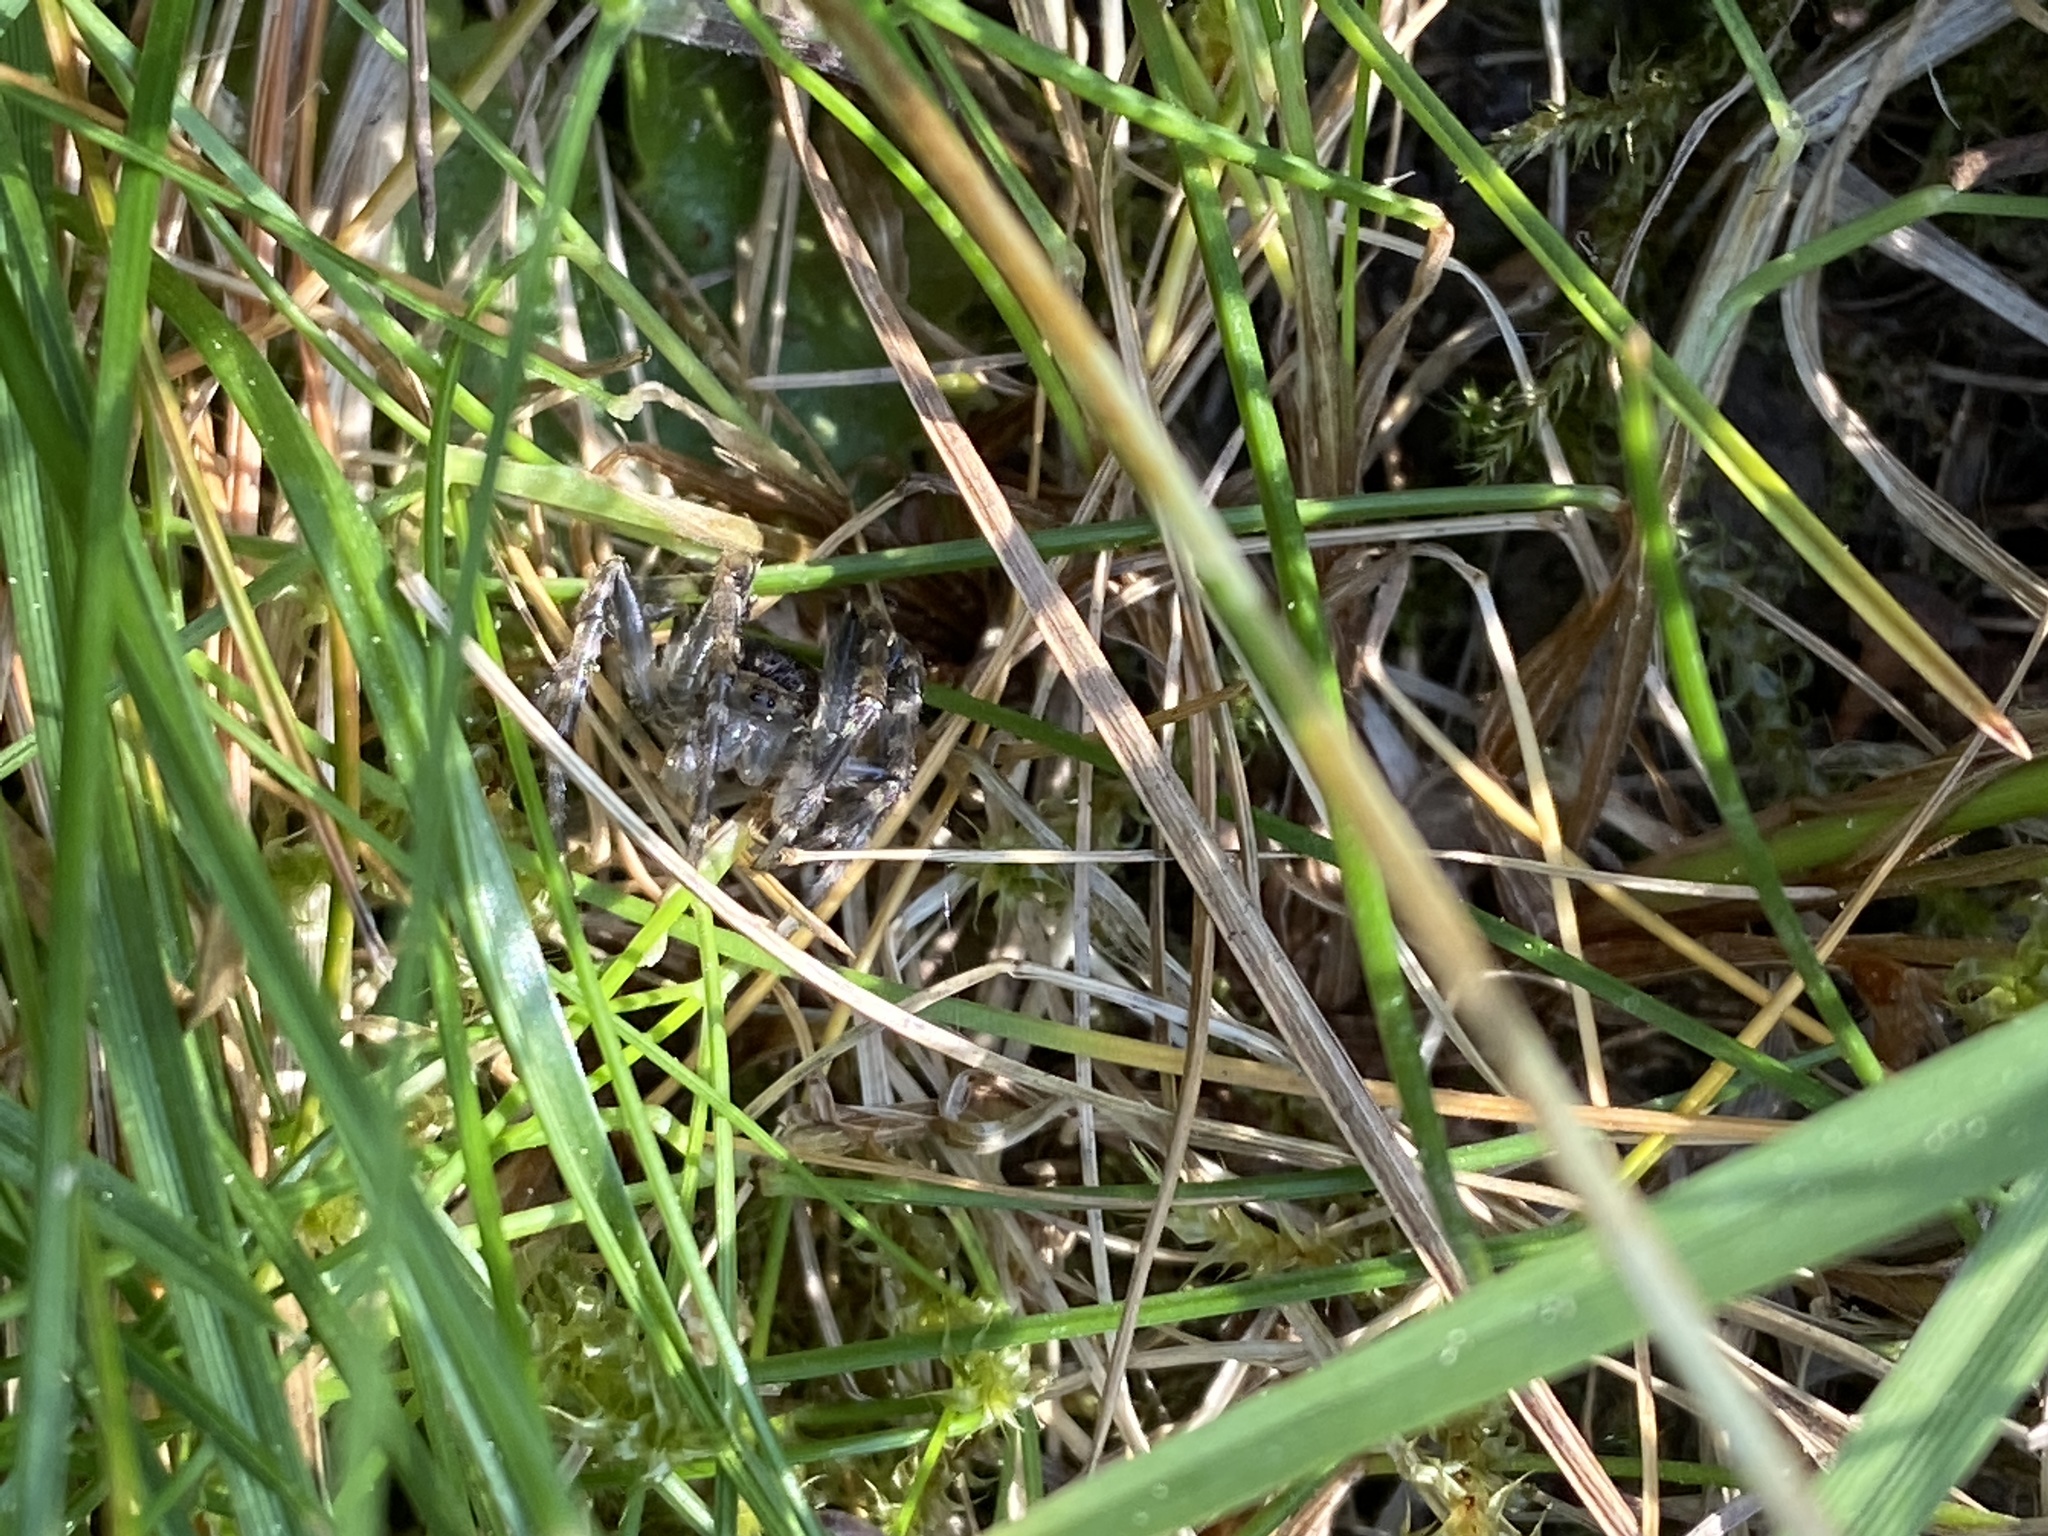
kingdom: Animalia
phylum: Arthropoda
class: Arachnida
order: Araneae
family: Araneidae
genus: Nuctenea
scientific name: Nuctenea umbratica
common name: Toad spider
